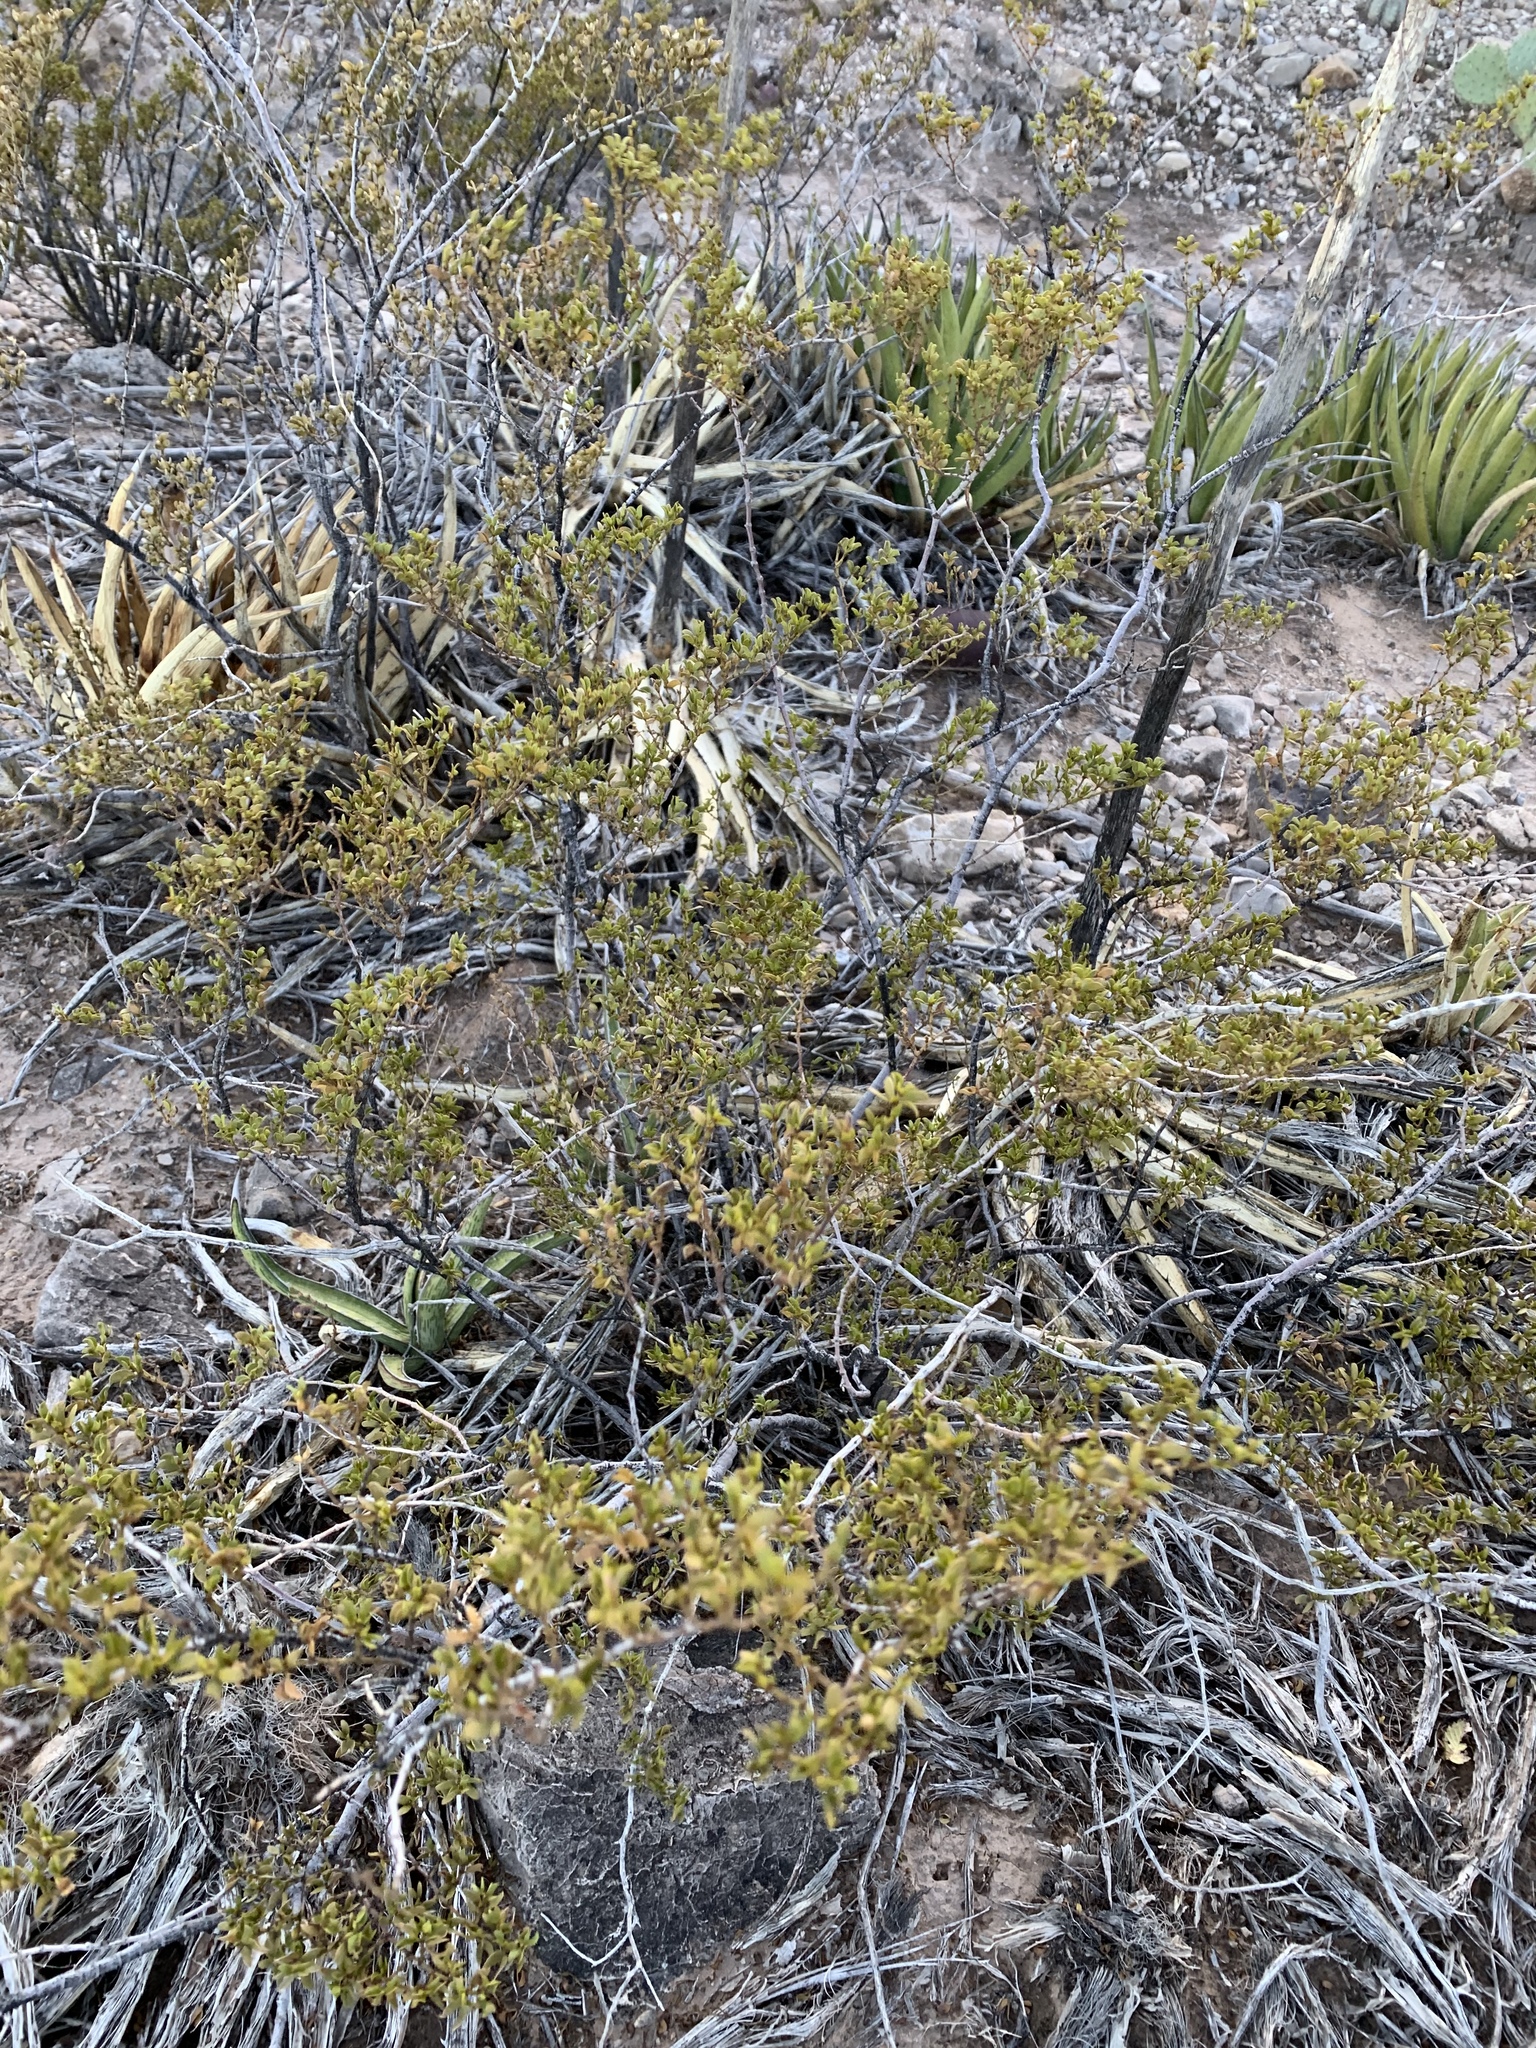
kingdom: Plantae
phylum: Tracheophyta
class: Magnoliopsida
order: Zygophyllales
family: Zygophyllaceae
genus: Larrea
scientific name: Larrea tridentata
